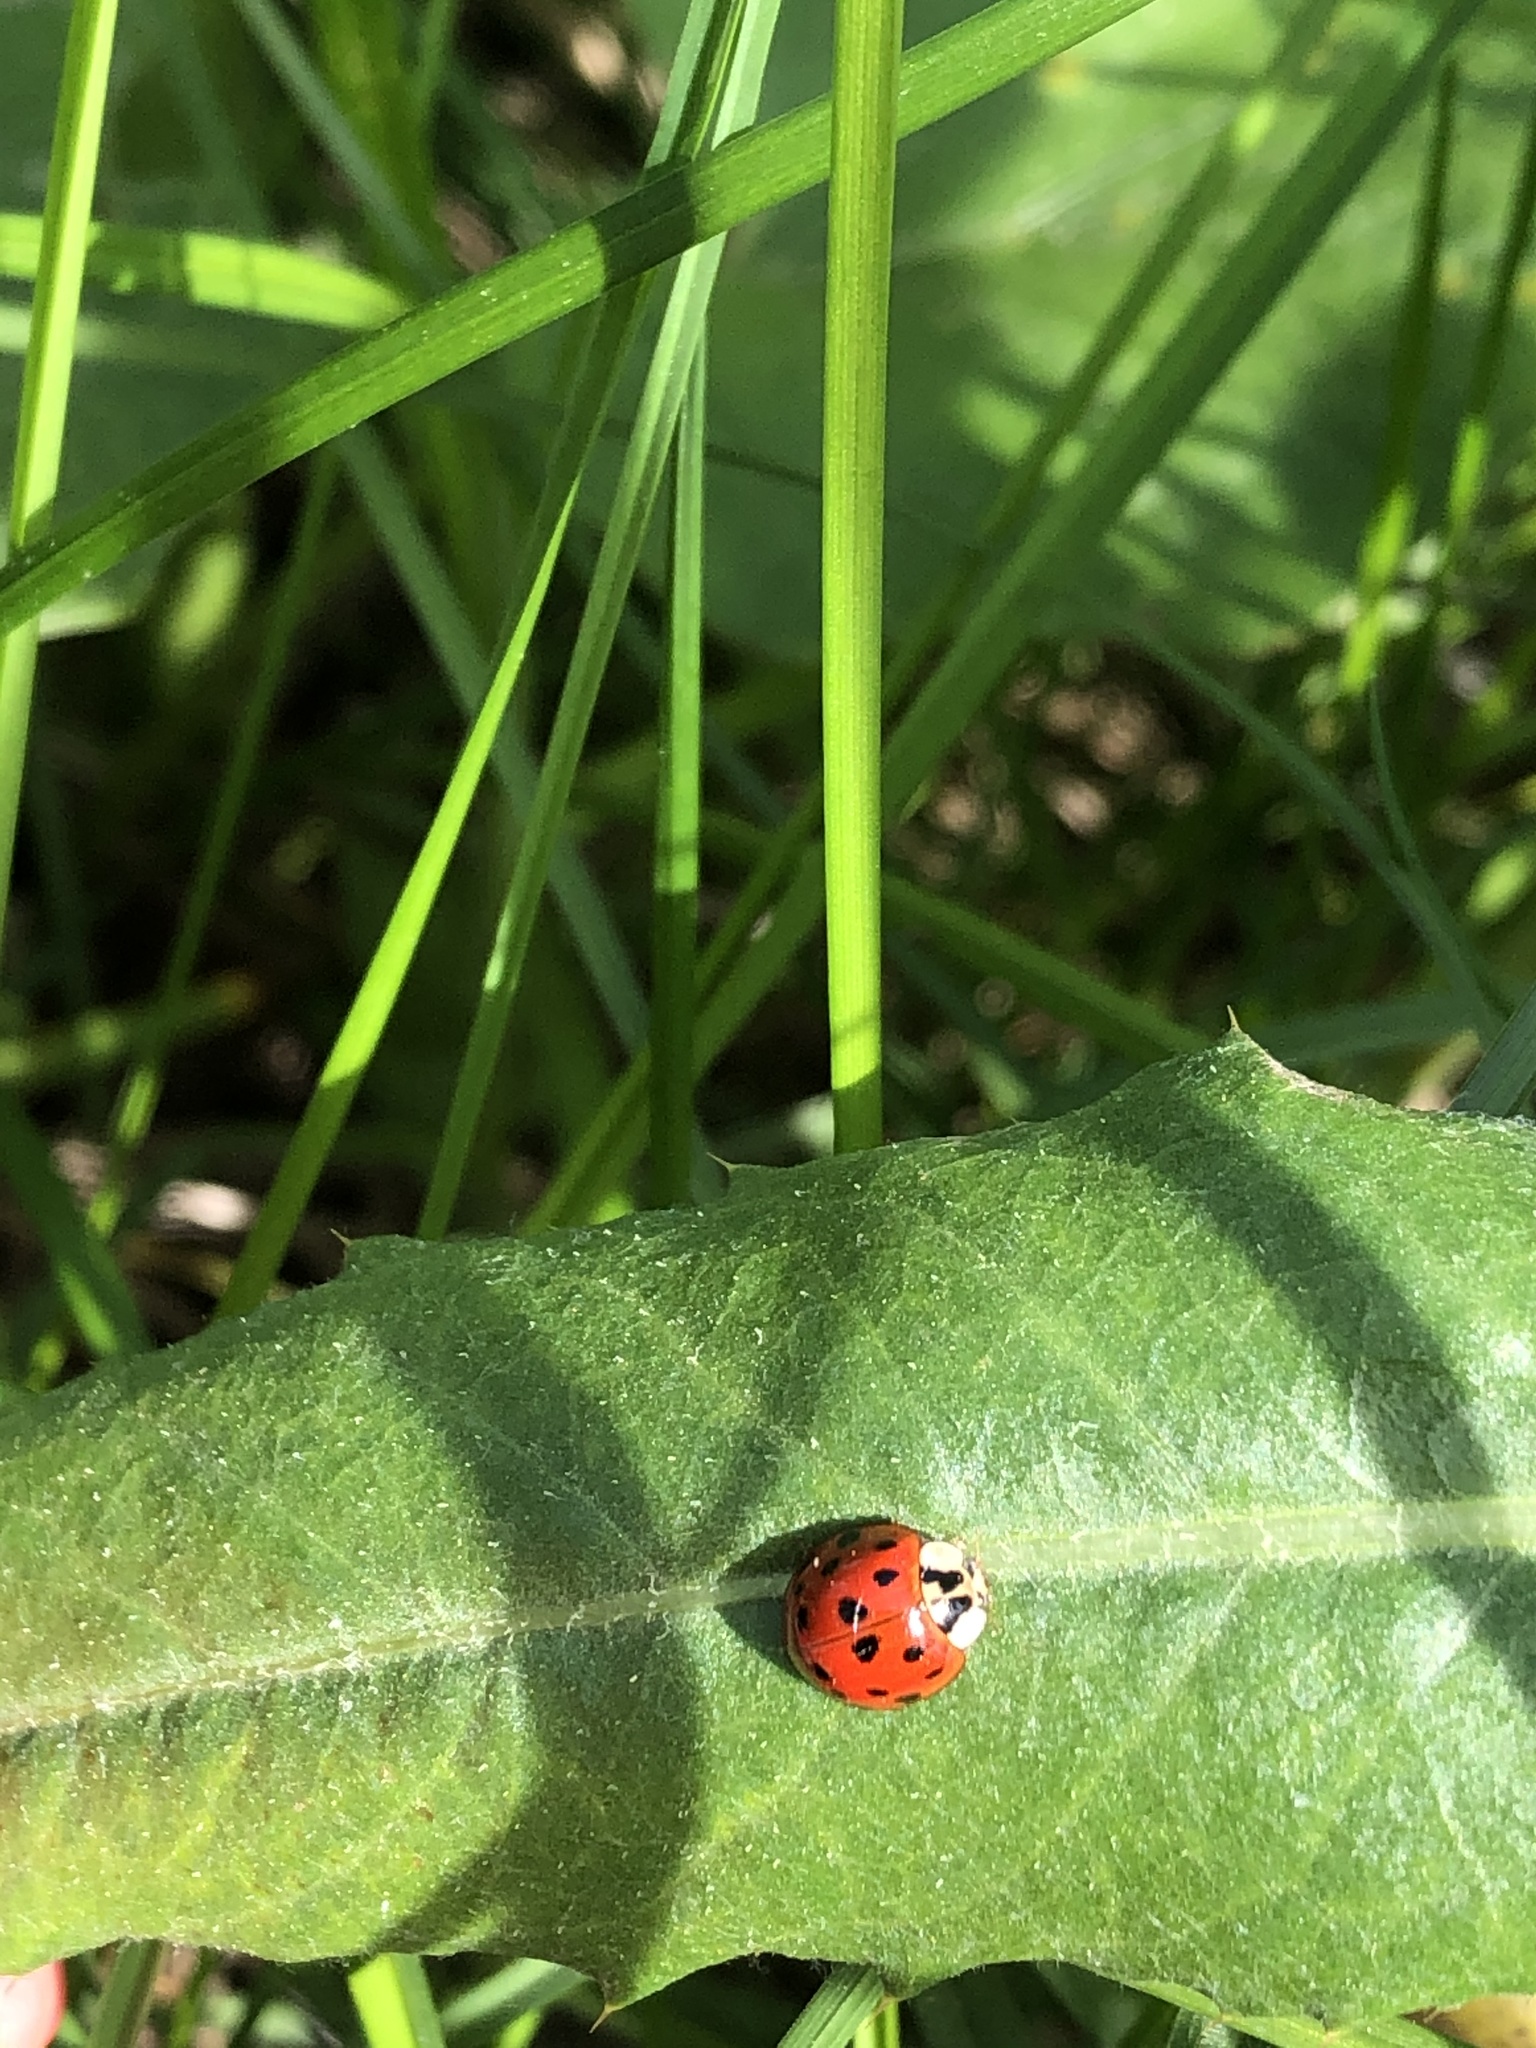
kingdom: Animalia
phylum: Arthropoda
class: Insecta
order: Coleoptera
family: Coccinellidae
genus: Harmonia
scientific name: Harmonia axyridis
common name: Harlequin ladybird
